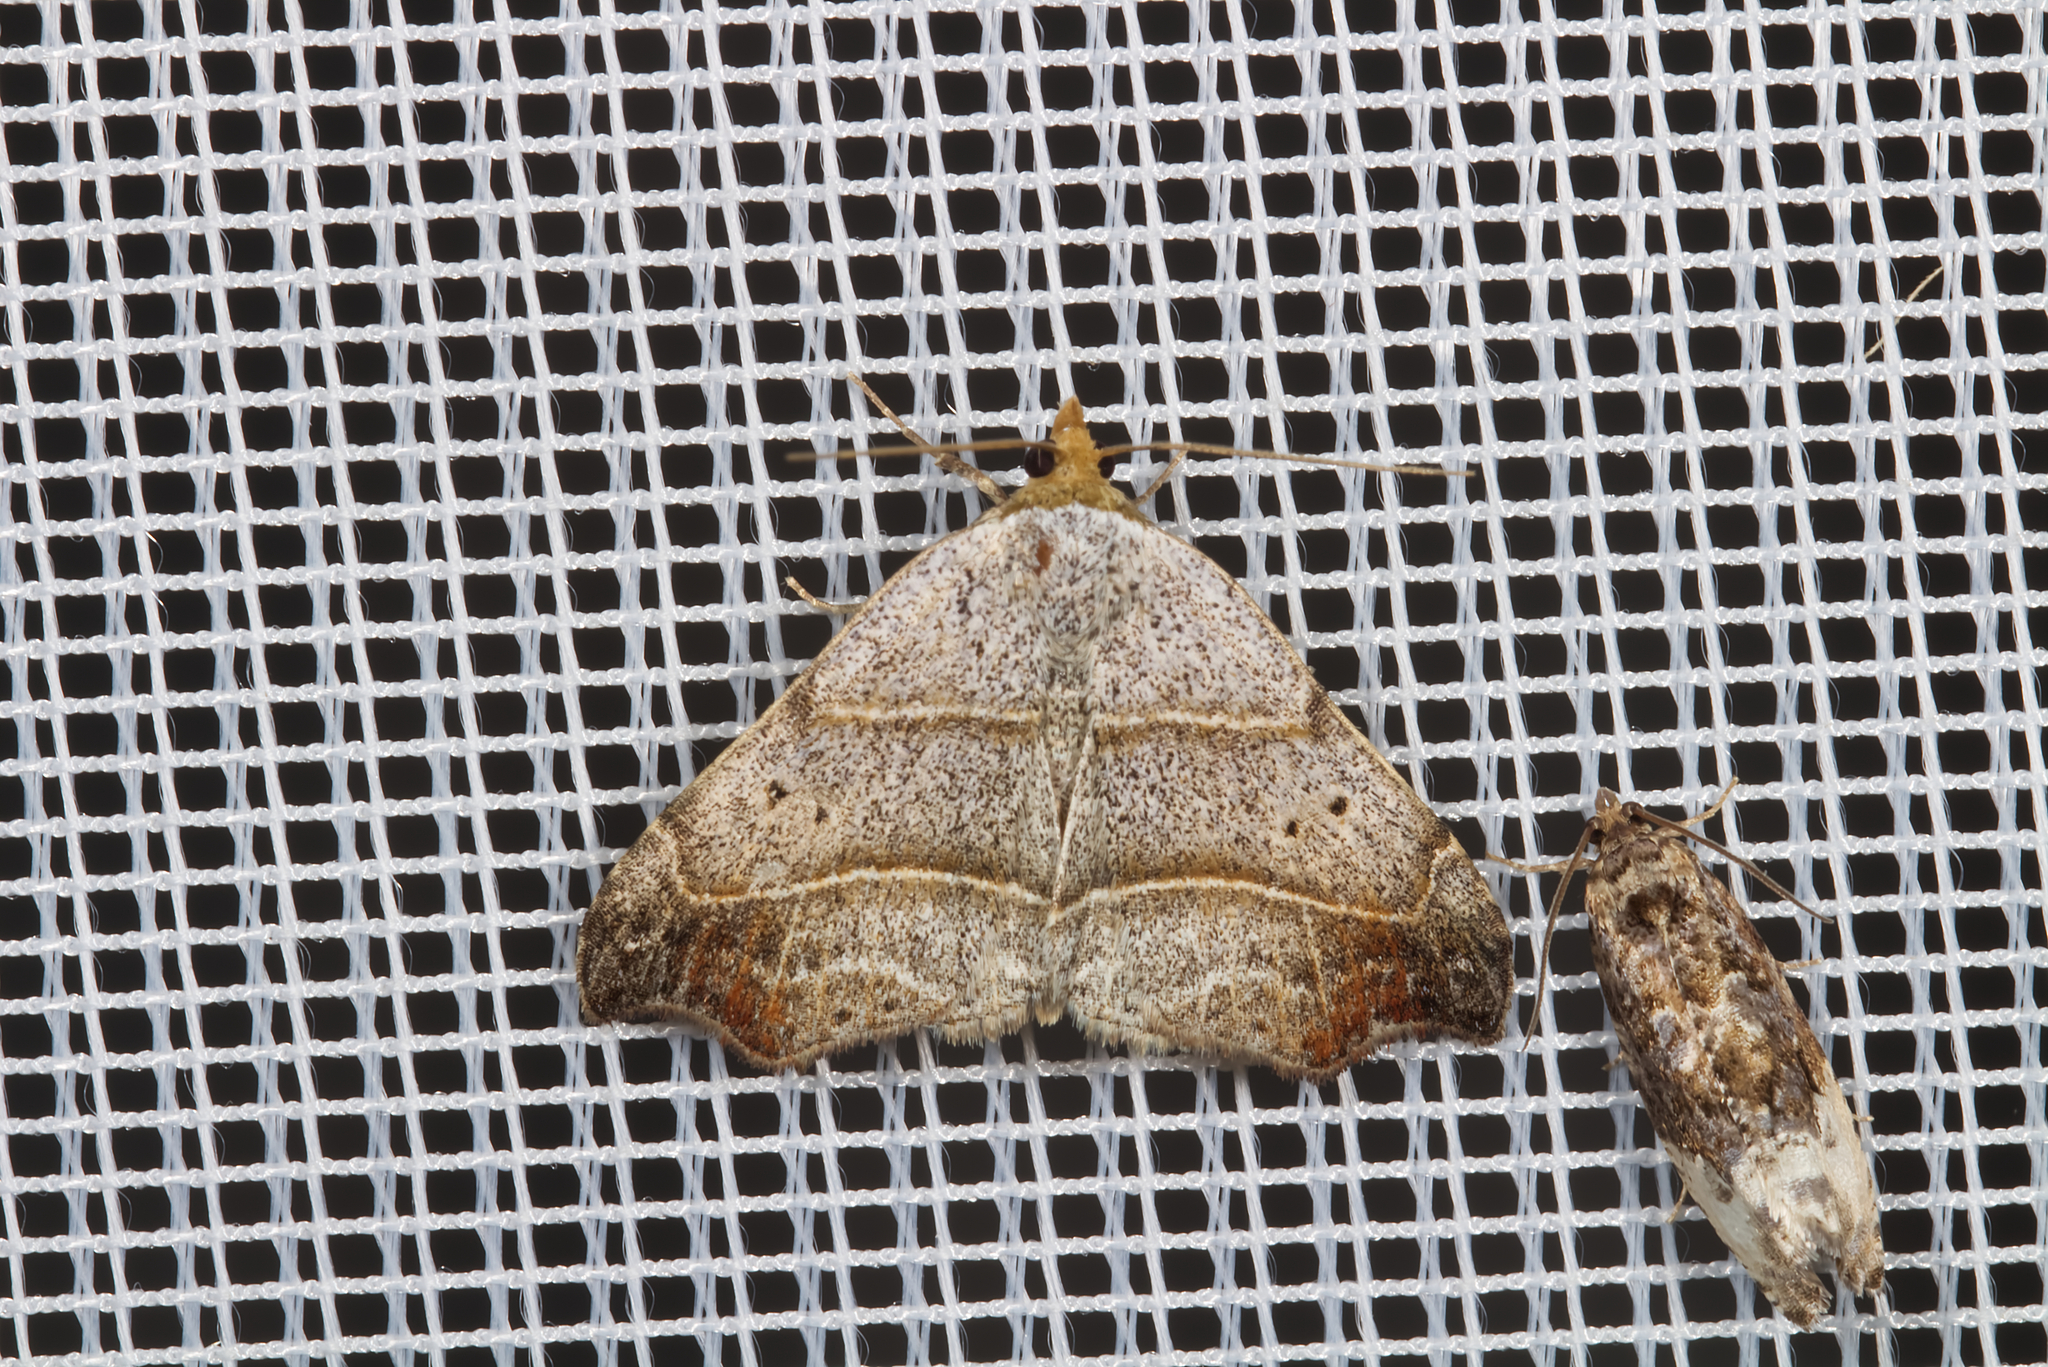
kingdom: Animalia
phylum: Arthropoda
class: Insecta
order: Lepidoptera
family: Erebidae
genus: Laspeyria
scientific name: Laspeyria flexula
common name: Beautiful hook-tip
